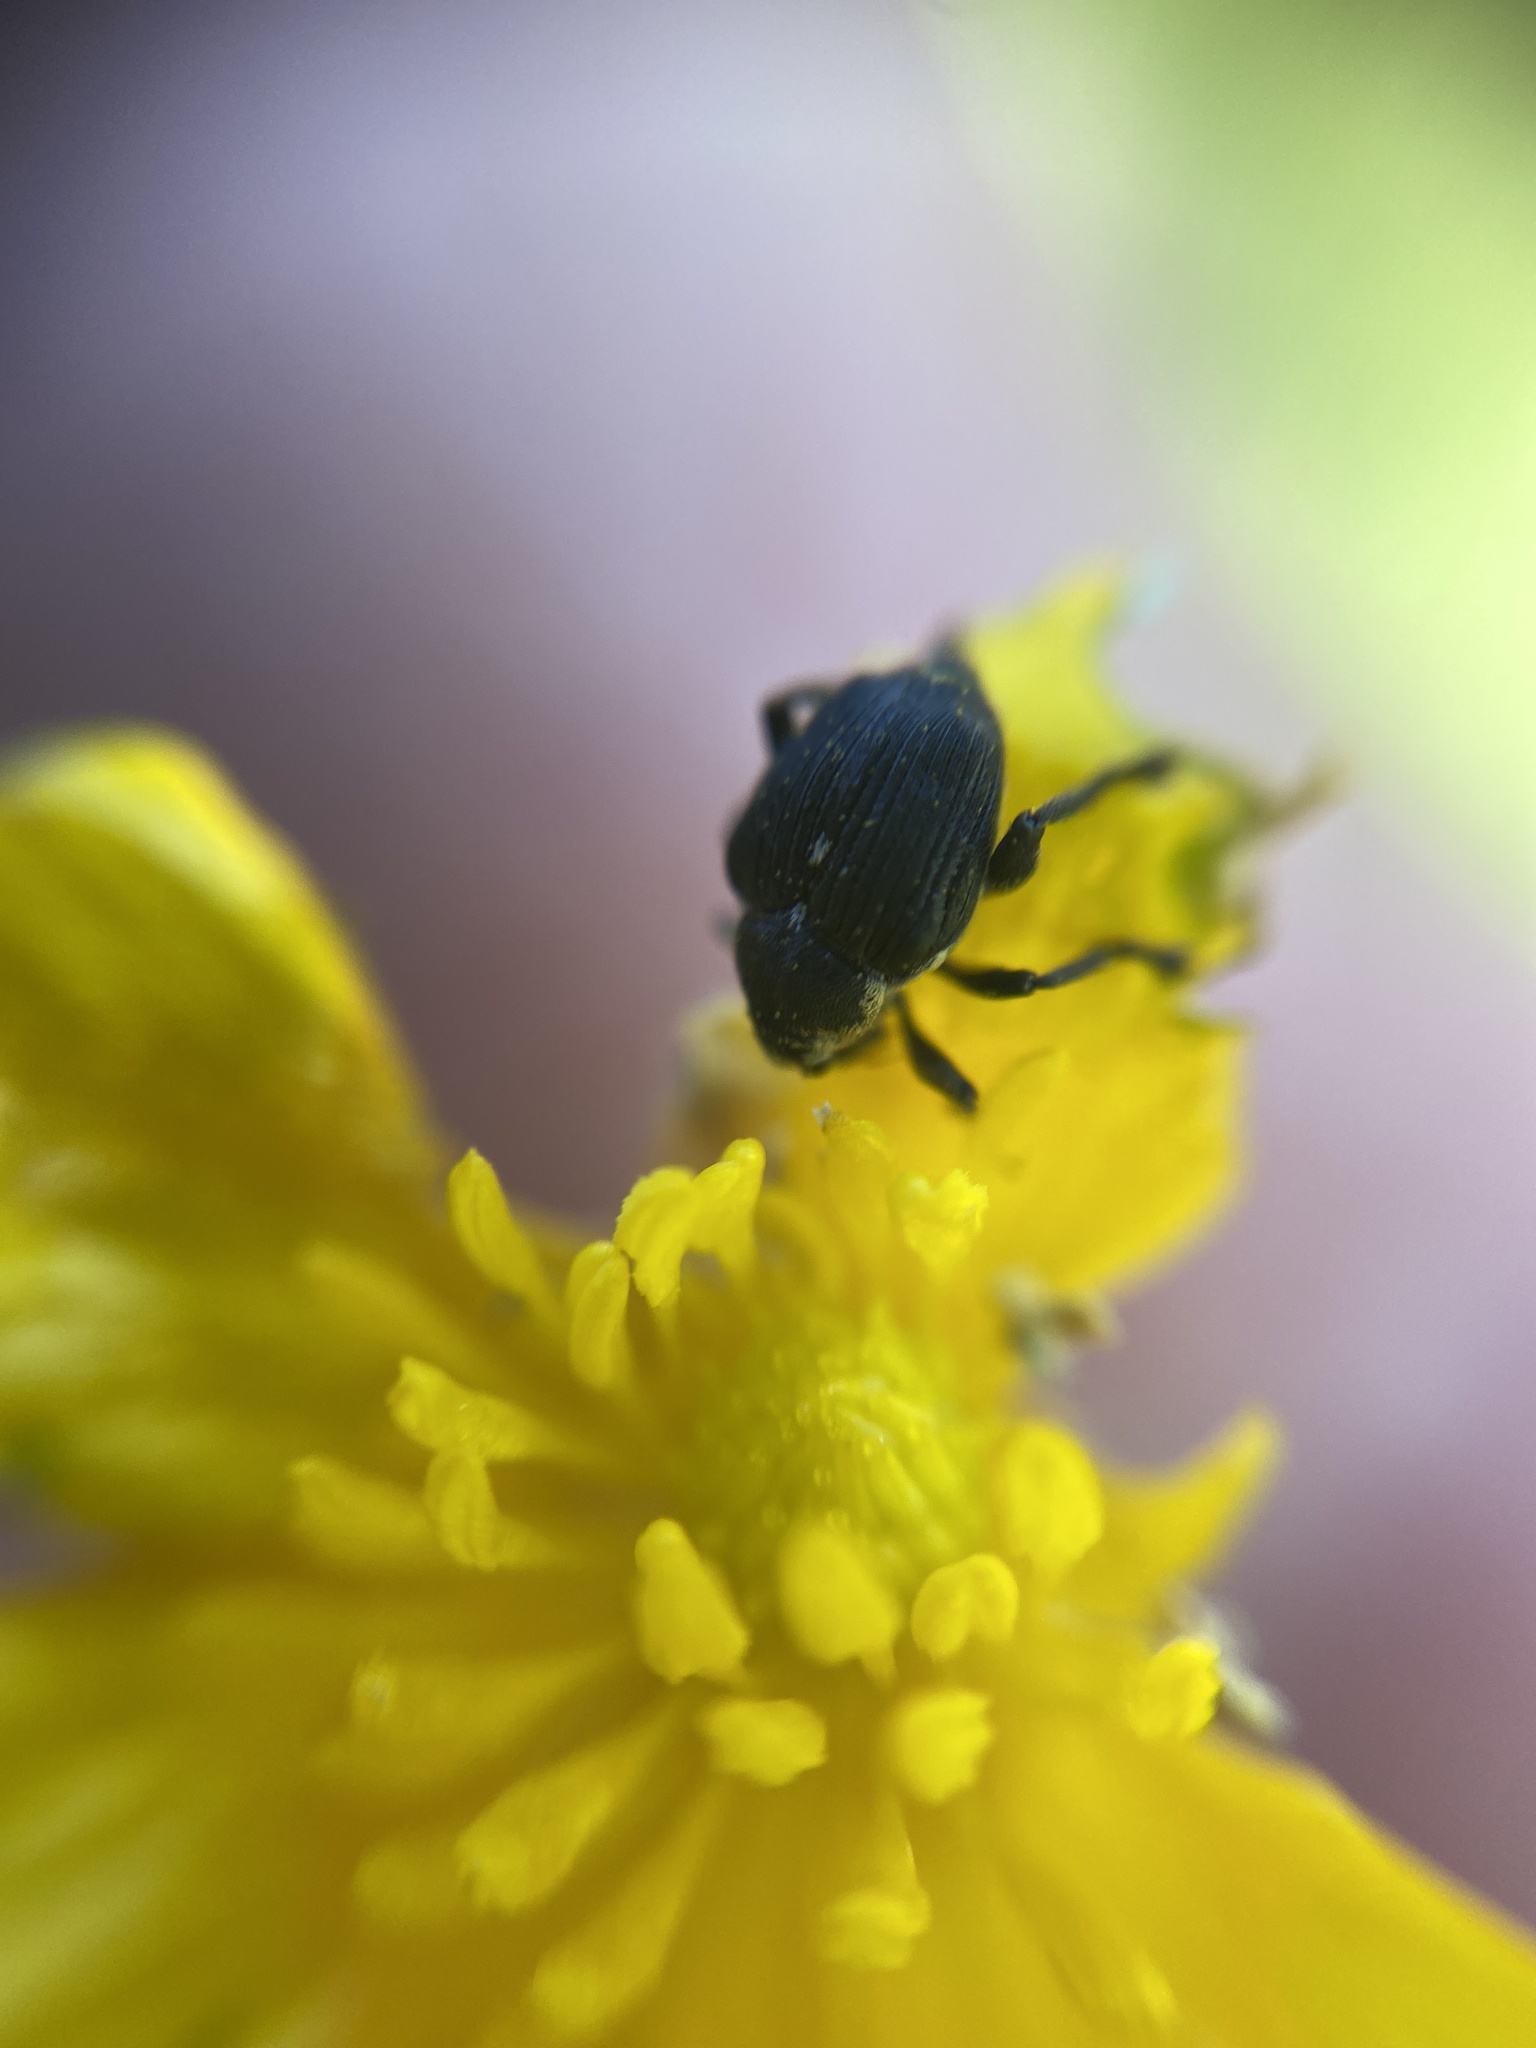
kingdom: Animalia
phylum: Arthropoda
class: Insecta
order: Coleoptera
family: Curculionidae
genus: Mononychus
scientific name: Mononychus punctumalbum
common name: Iris weevil
